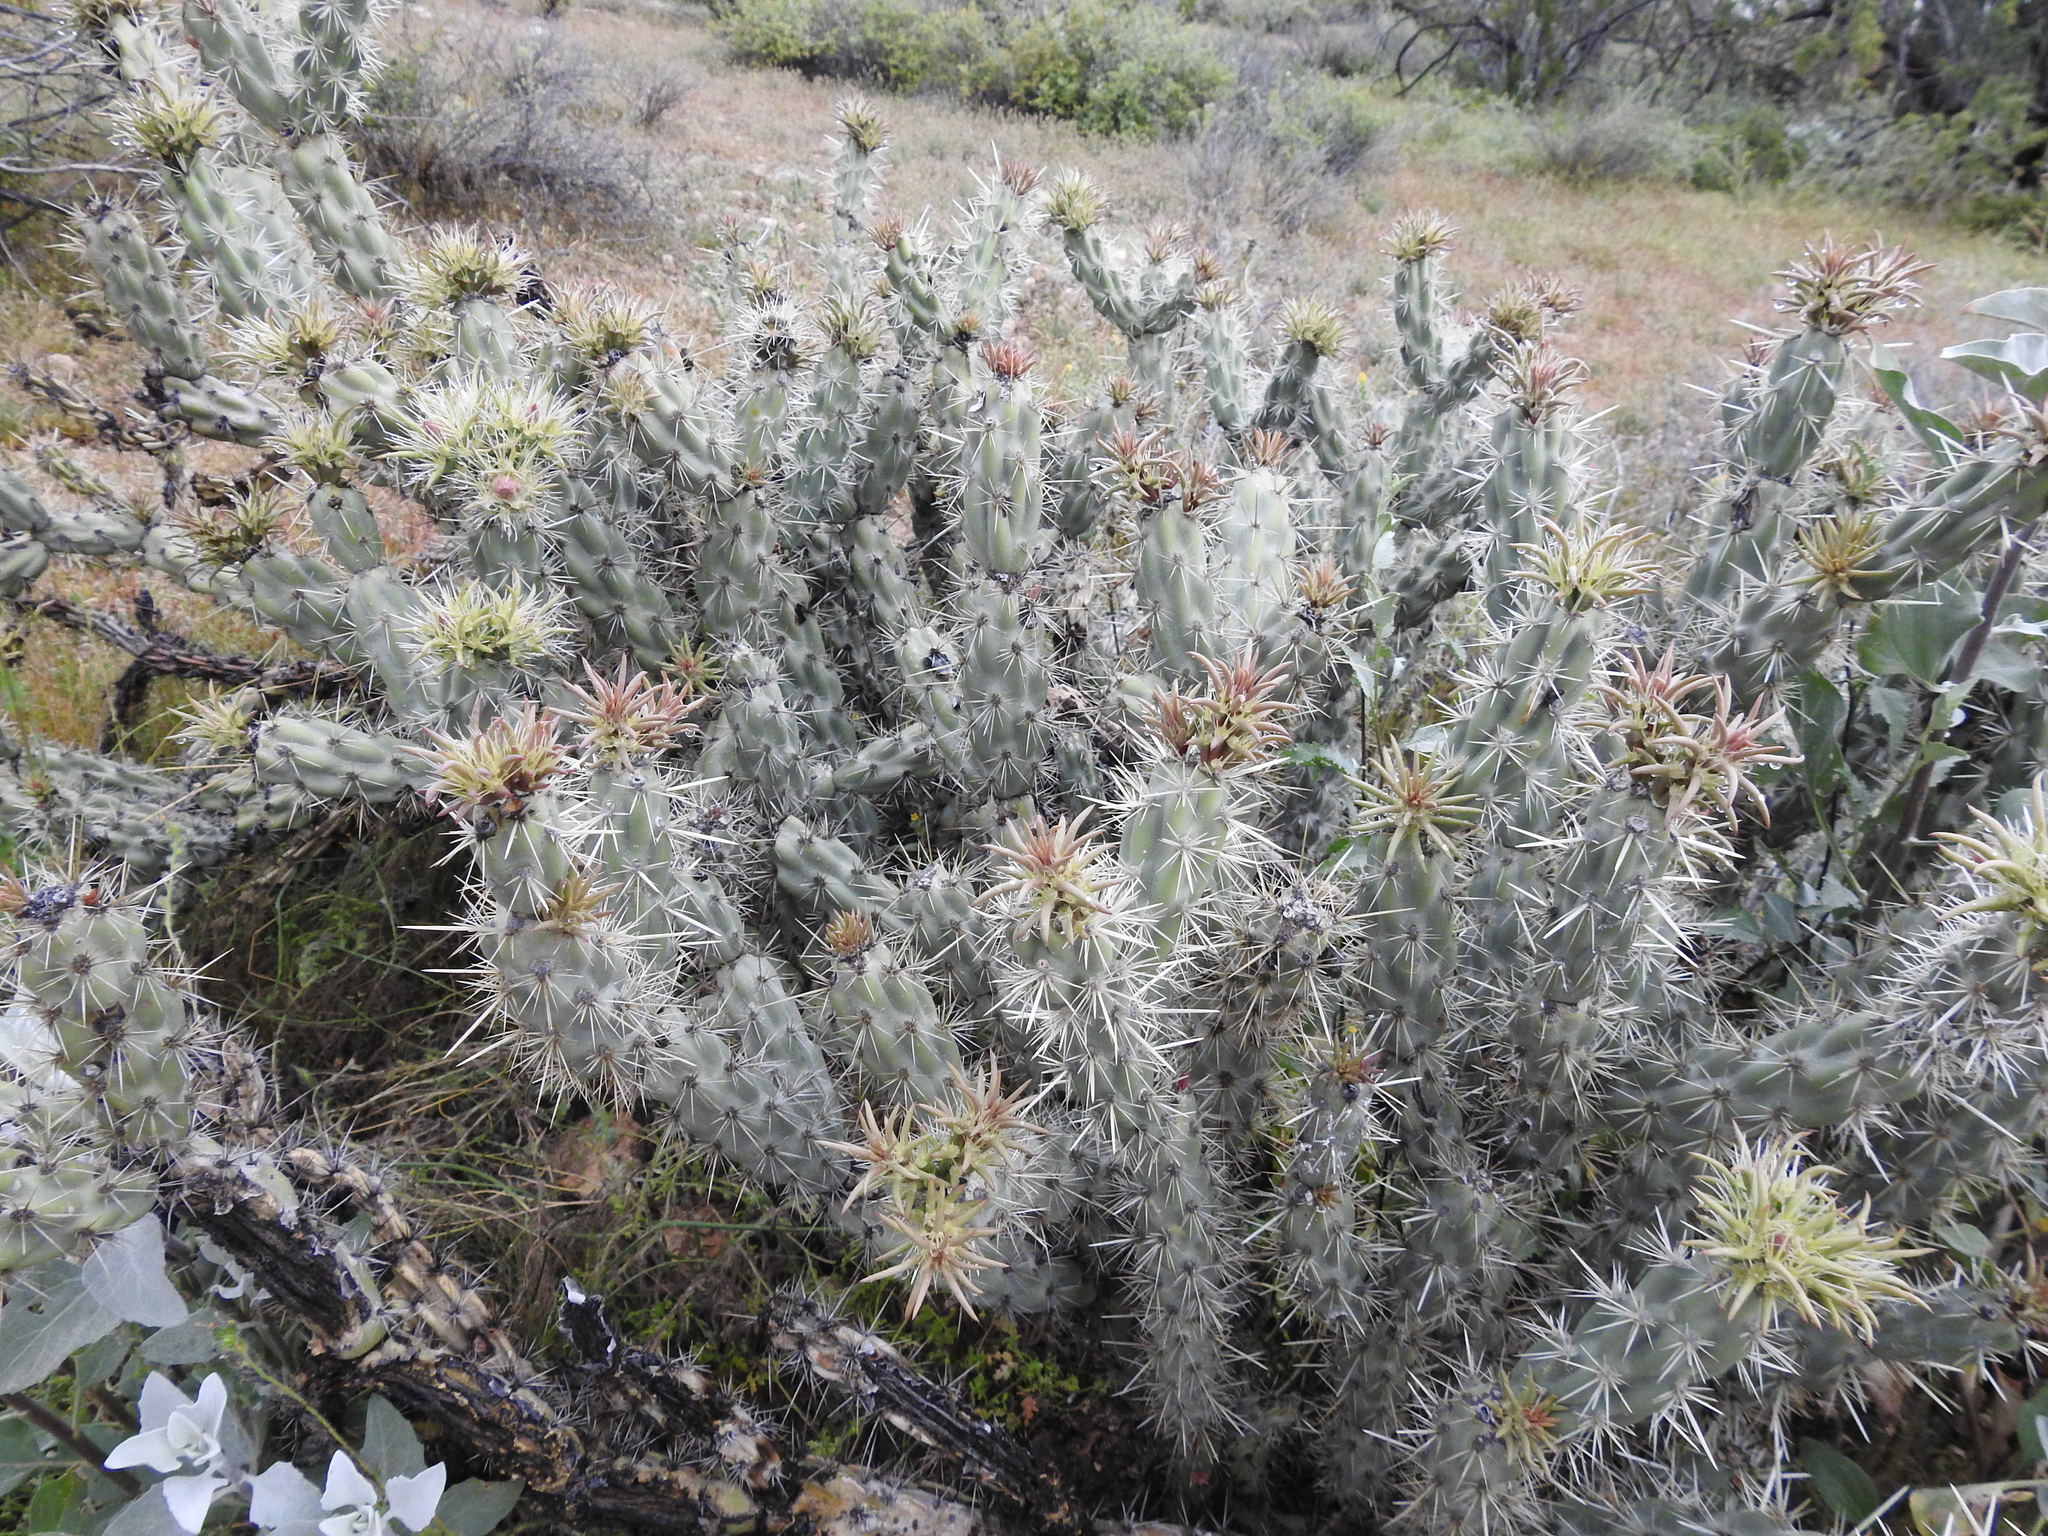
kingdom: Plantae
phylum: Tracheophyta
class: Magnoliopsida
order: Caryophyllales
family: Cactaceae
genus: Cylindropuntia
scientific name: Cylindropuntia acanthocarpa
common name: Buckhorn cholla
